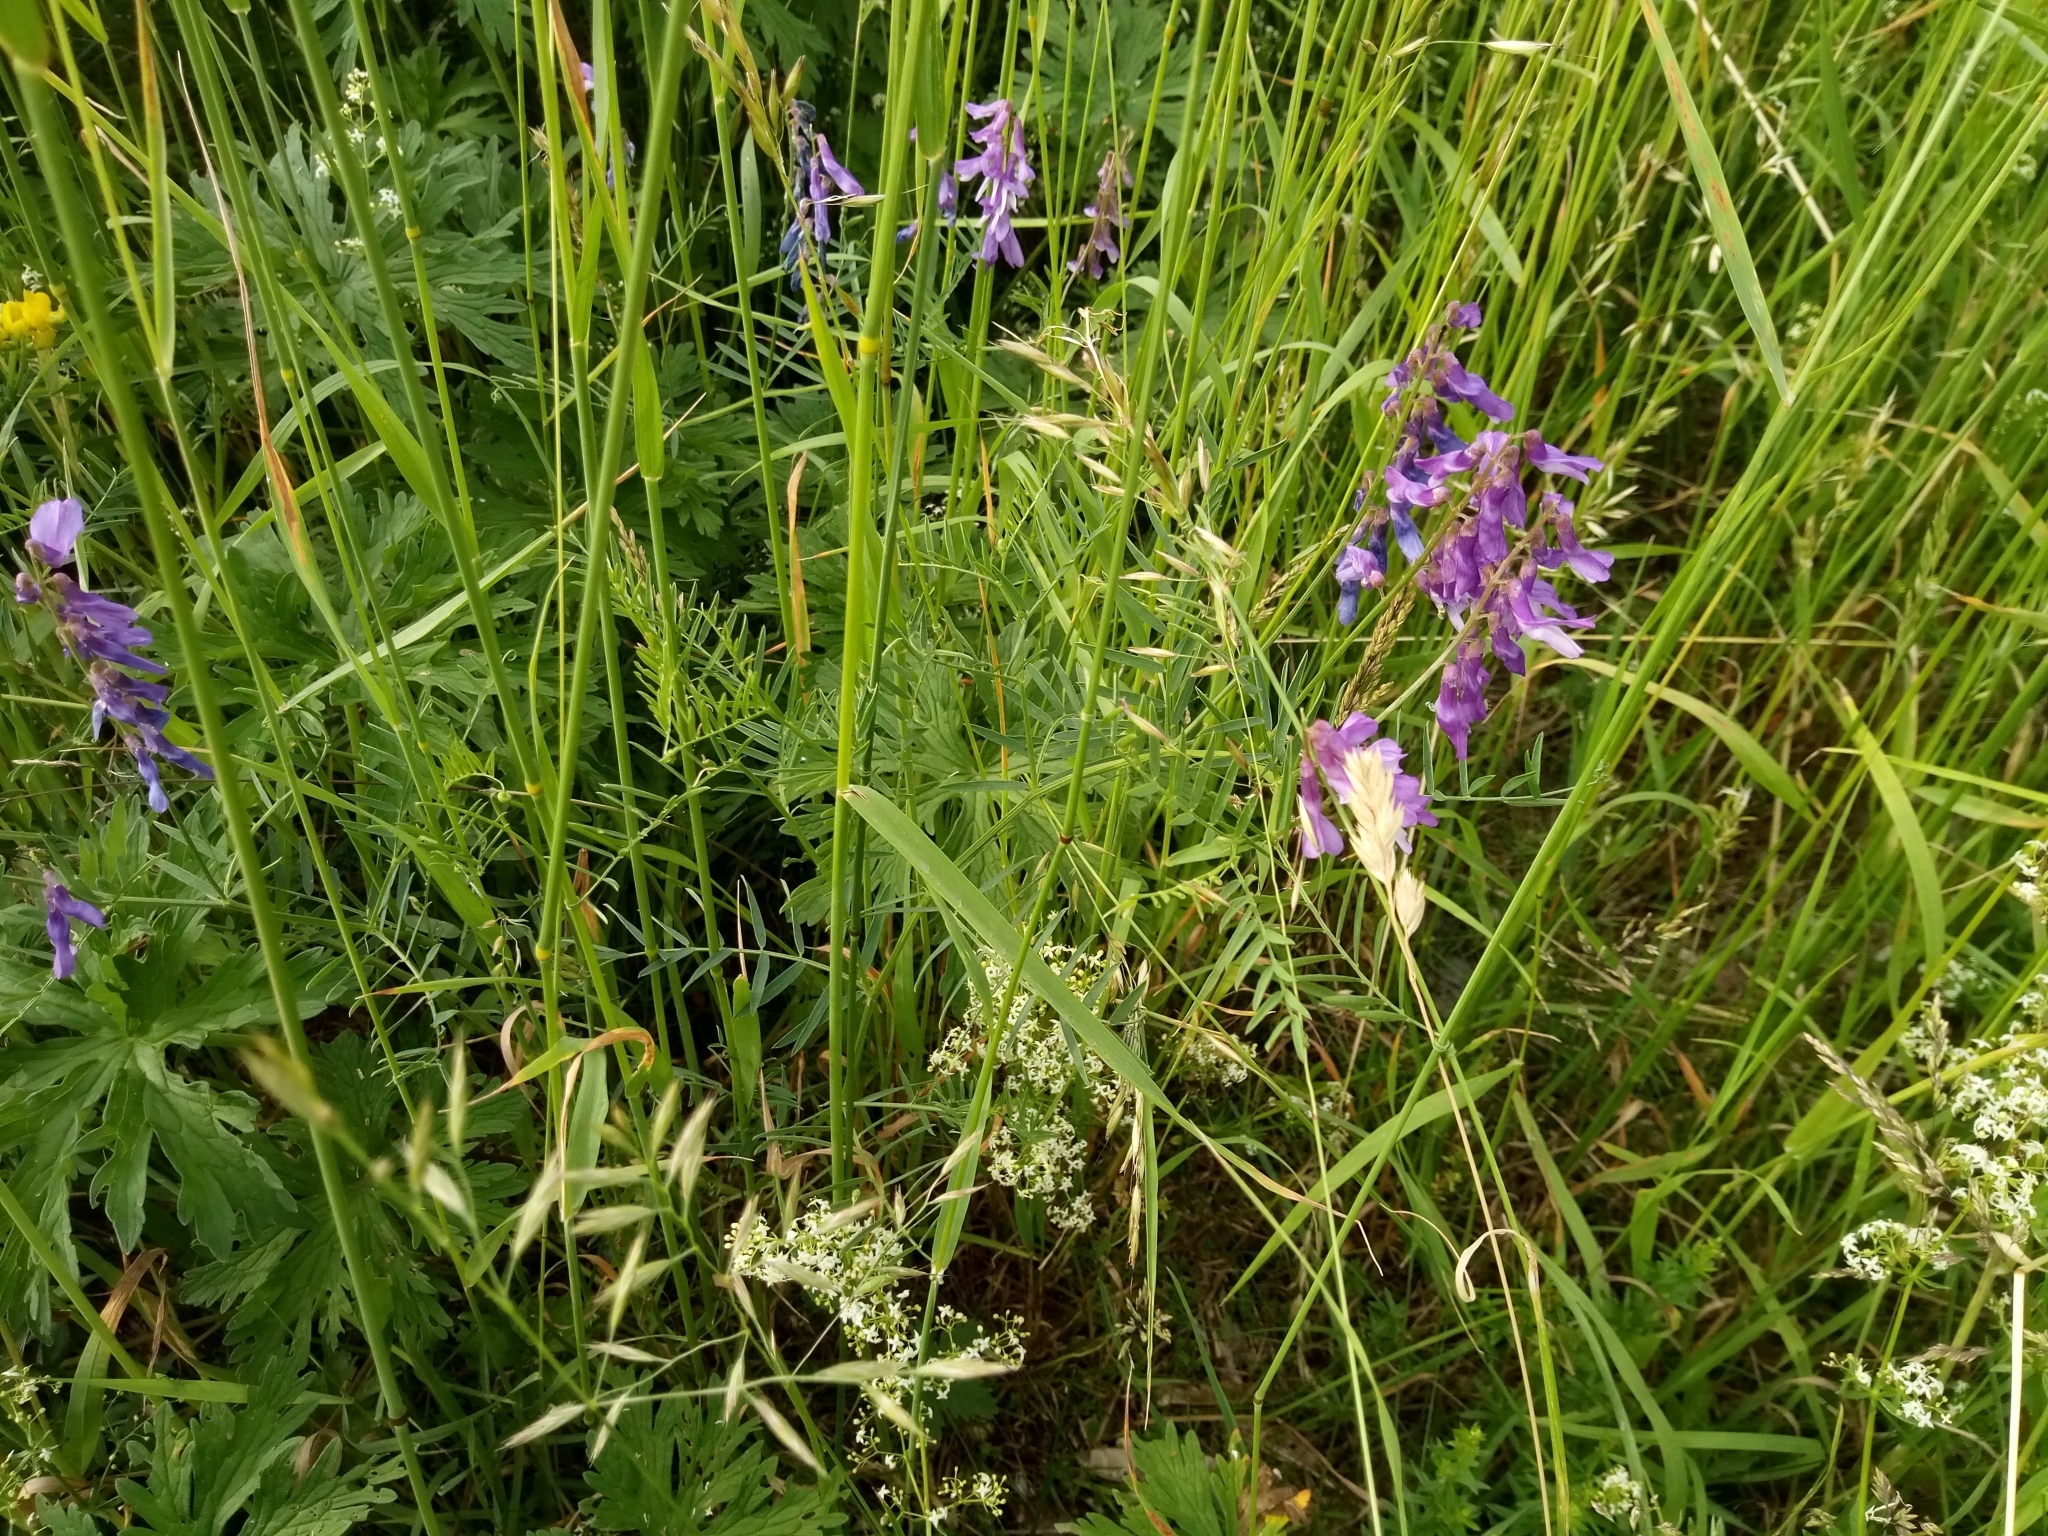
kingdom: Plantae
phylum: Tracheophyta
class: Magnoliopsida
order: Fabales
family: Fabaceae
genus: Vicia
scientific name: Vicia tenuifolia
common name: Fine-leaved vetch
